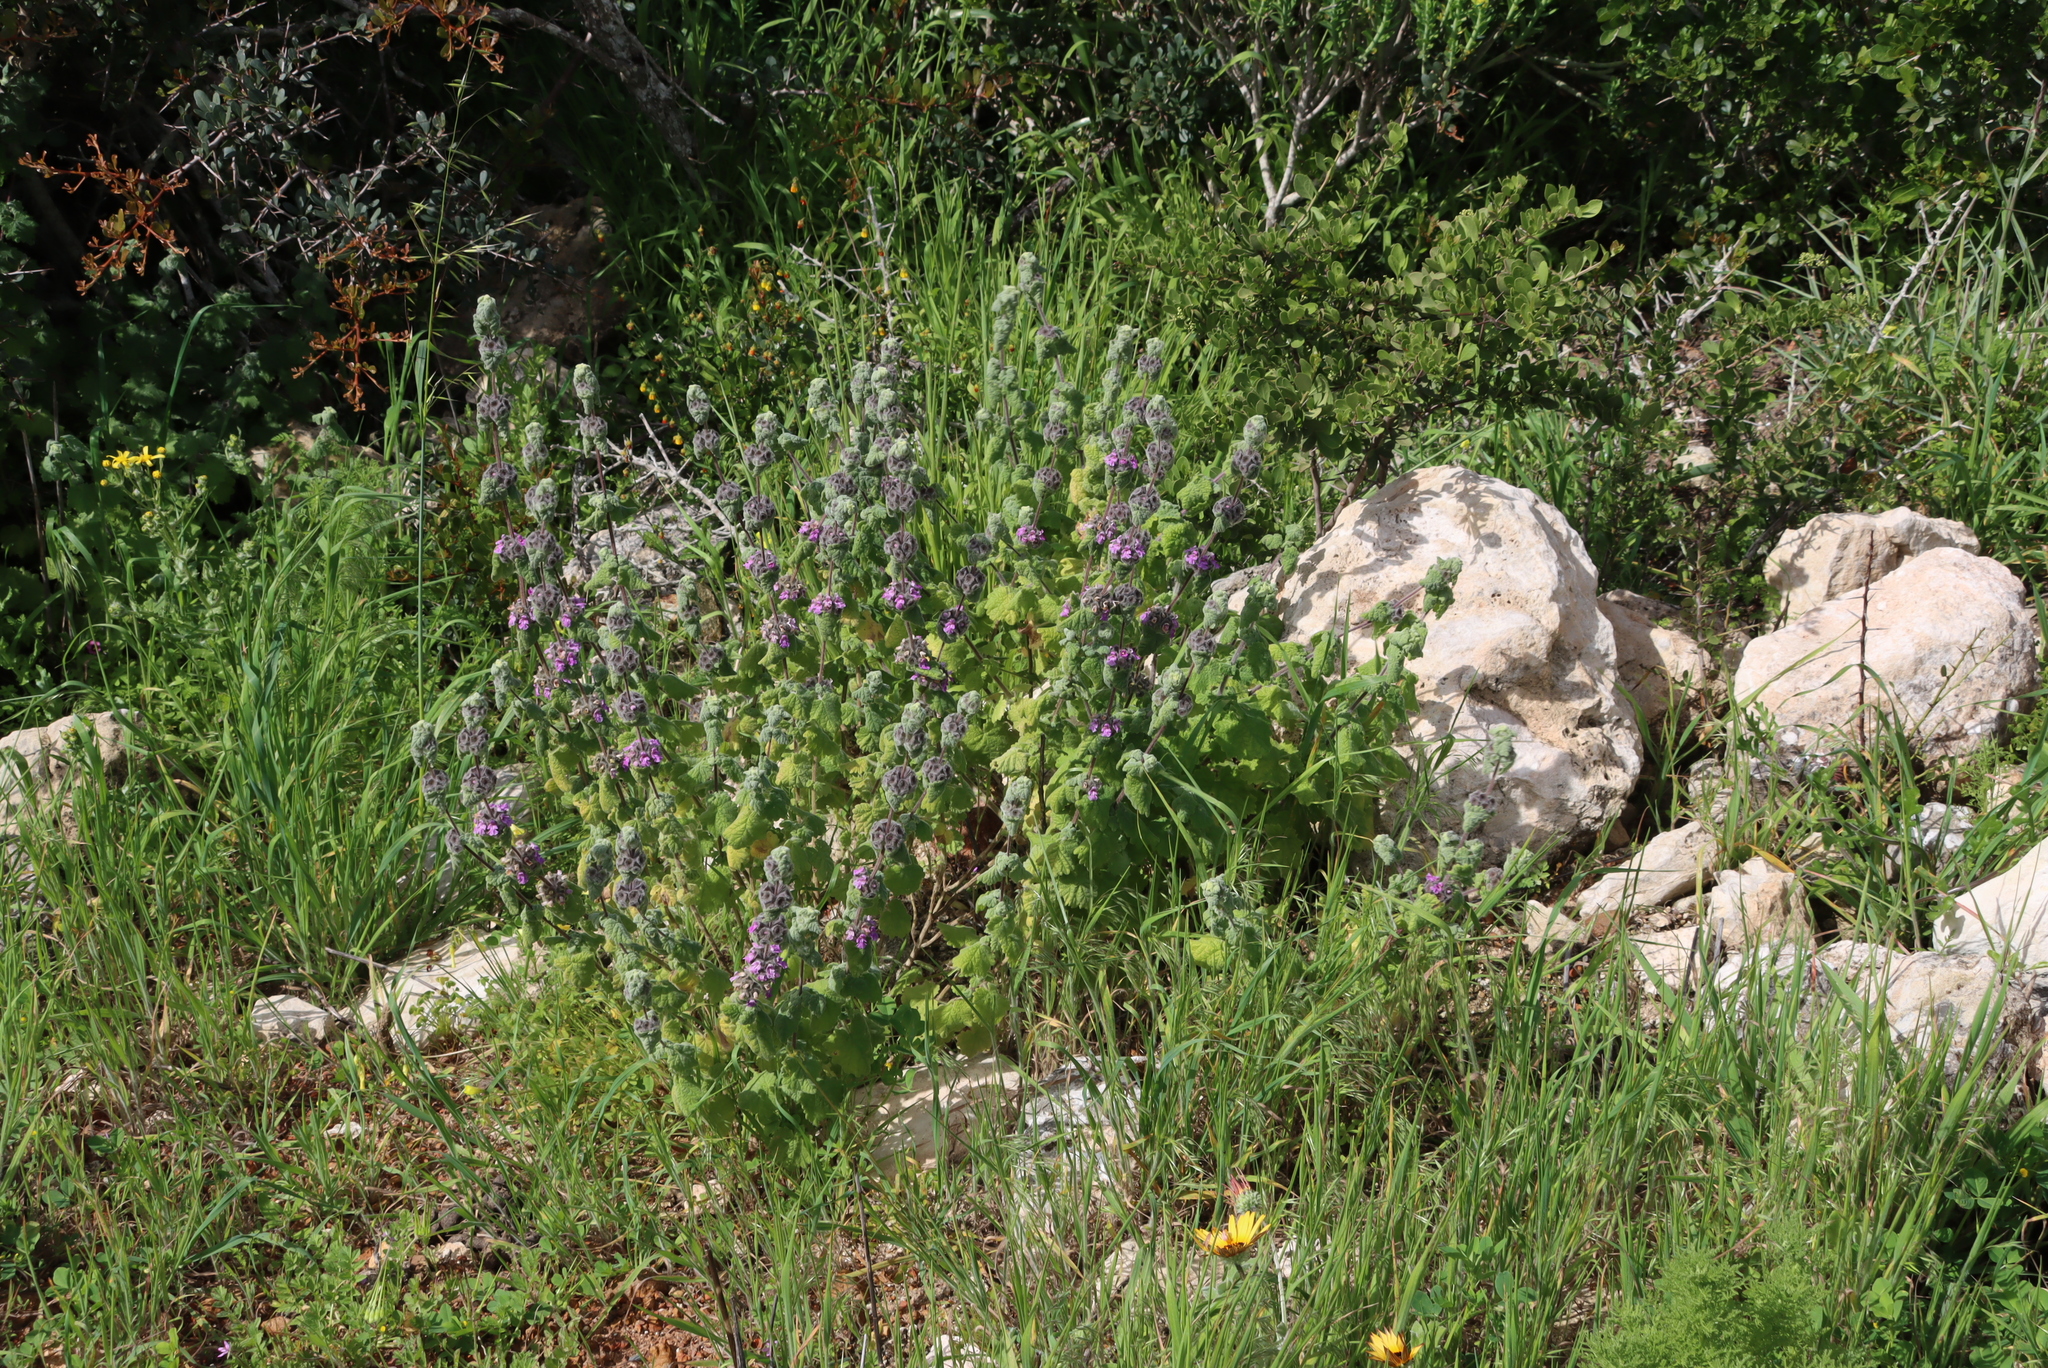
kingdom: Plantae
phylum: Tracheophyta
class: Magnoliopsida
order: Lamiales
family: Lamiaceae
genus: Pseudodictamnus
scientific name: Pseudodictamnus africanus
